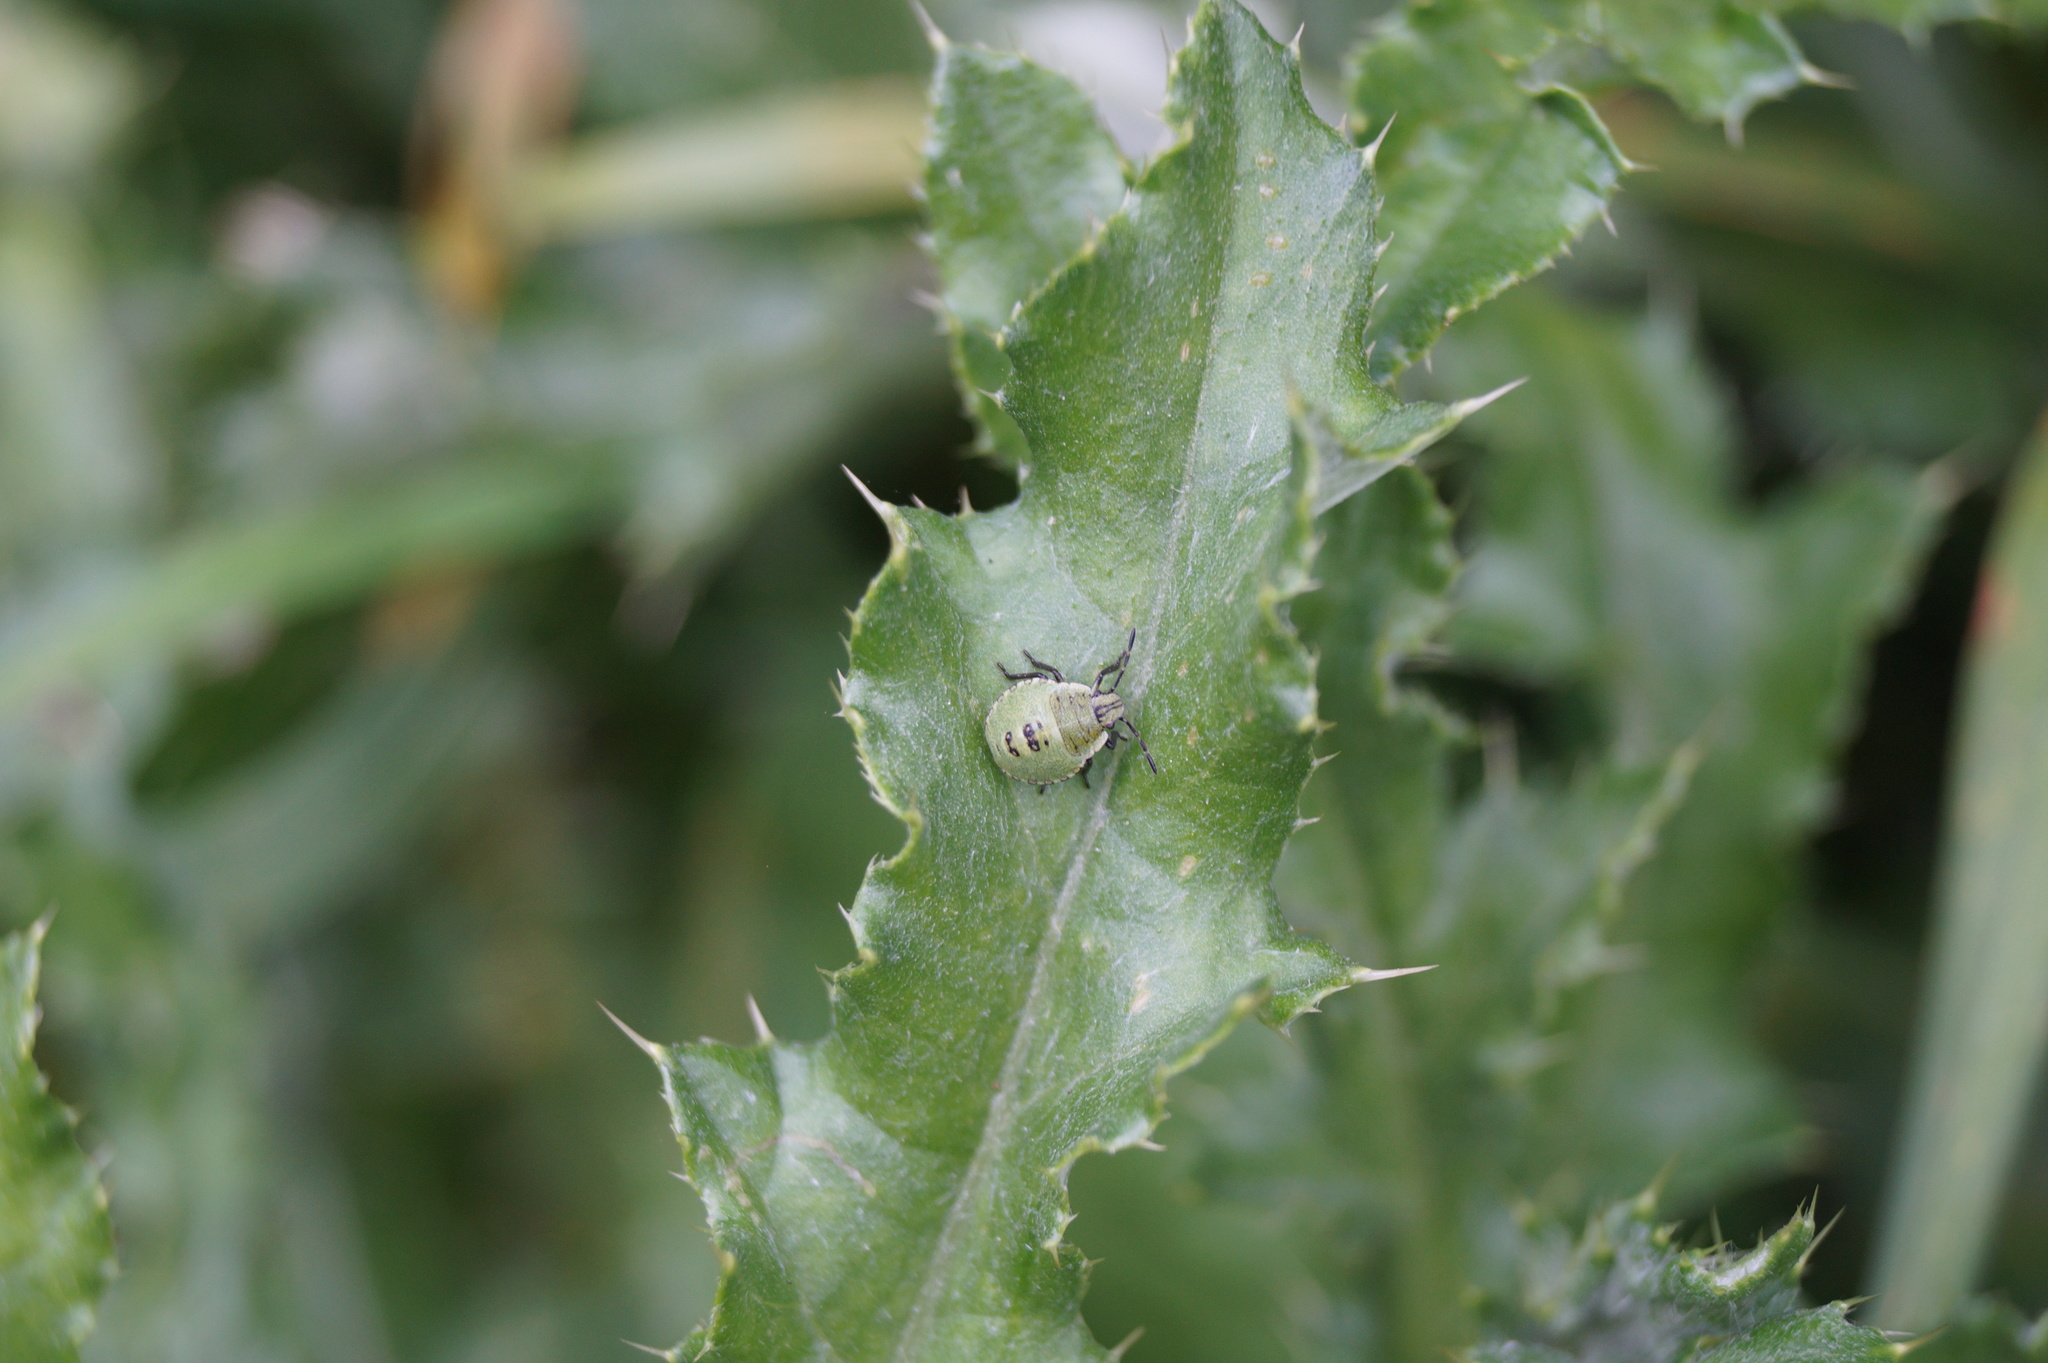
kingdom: Animalia
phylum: Arthropoda
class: Insecta
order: Hemiptera
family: Pentatomidae
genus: Palomena
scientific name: Palomena prasina
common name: Green shieldbug
